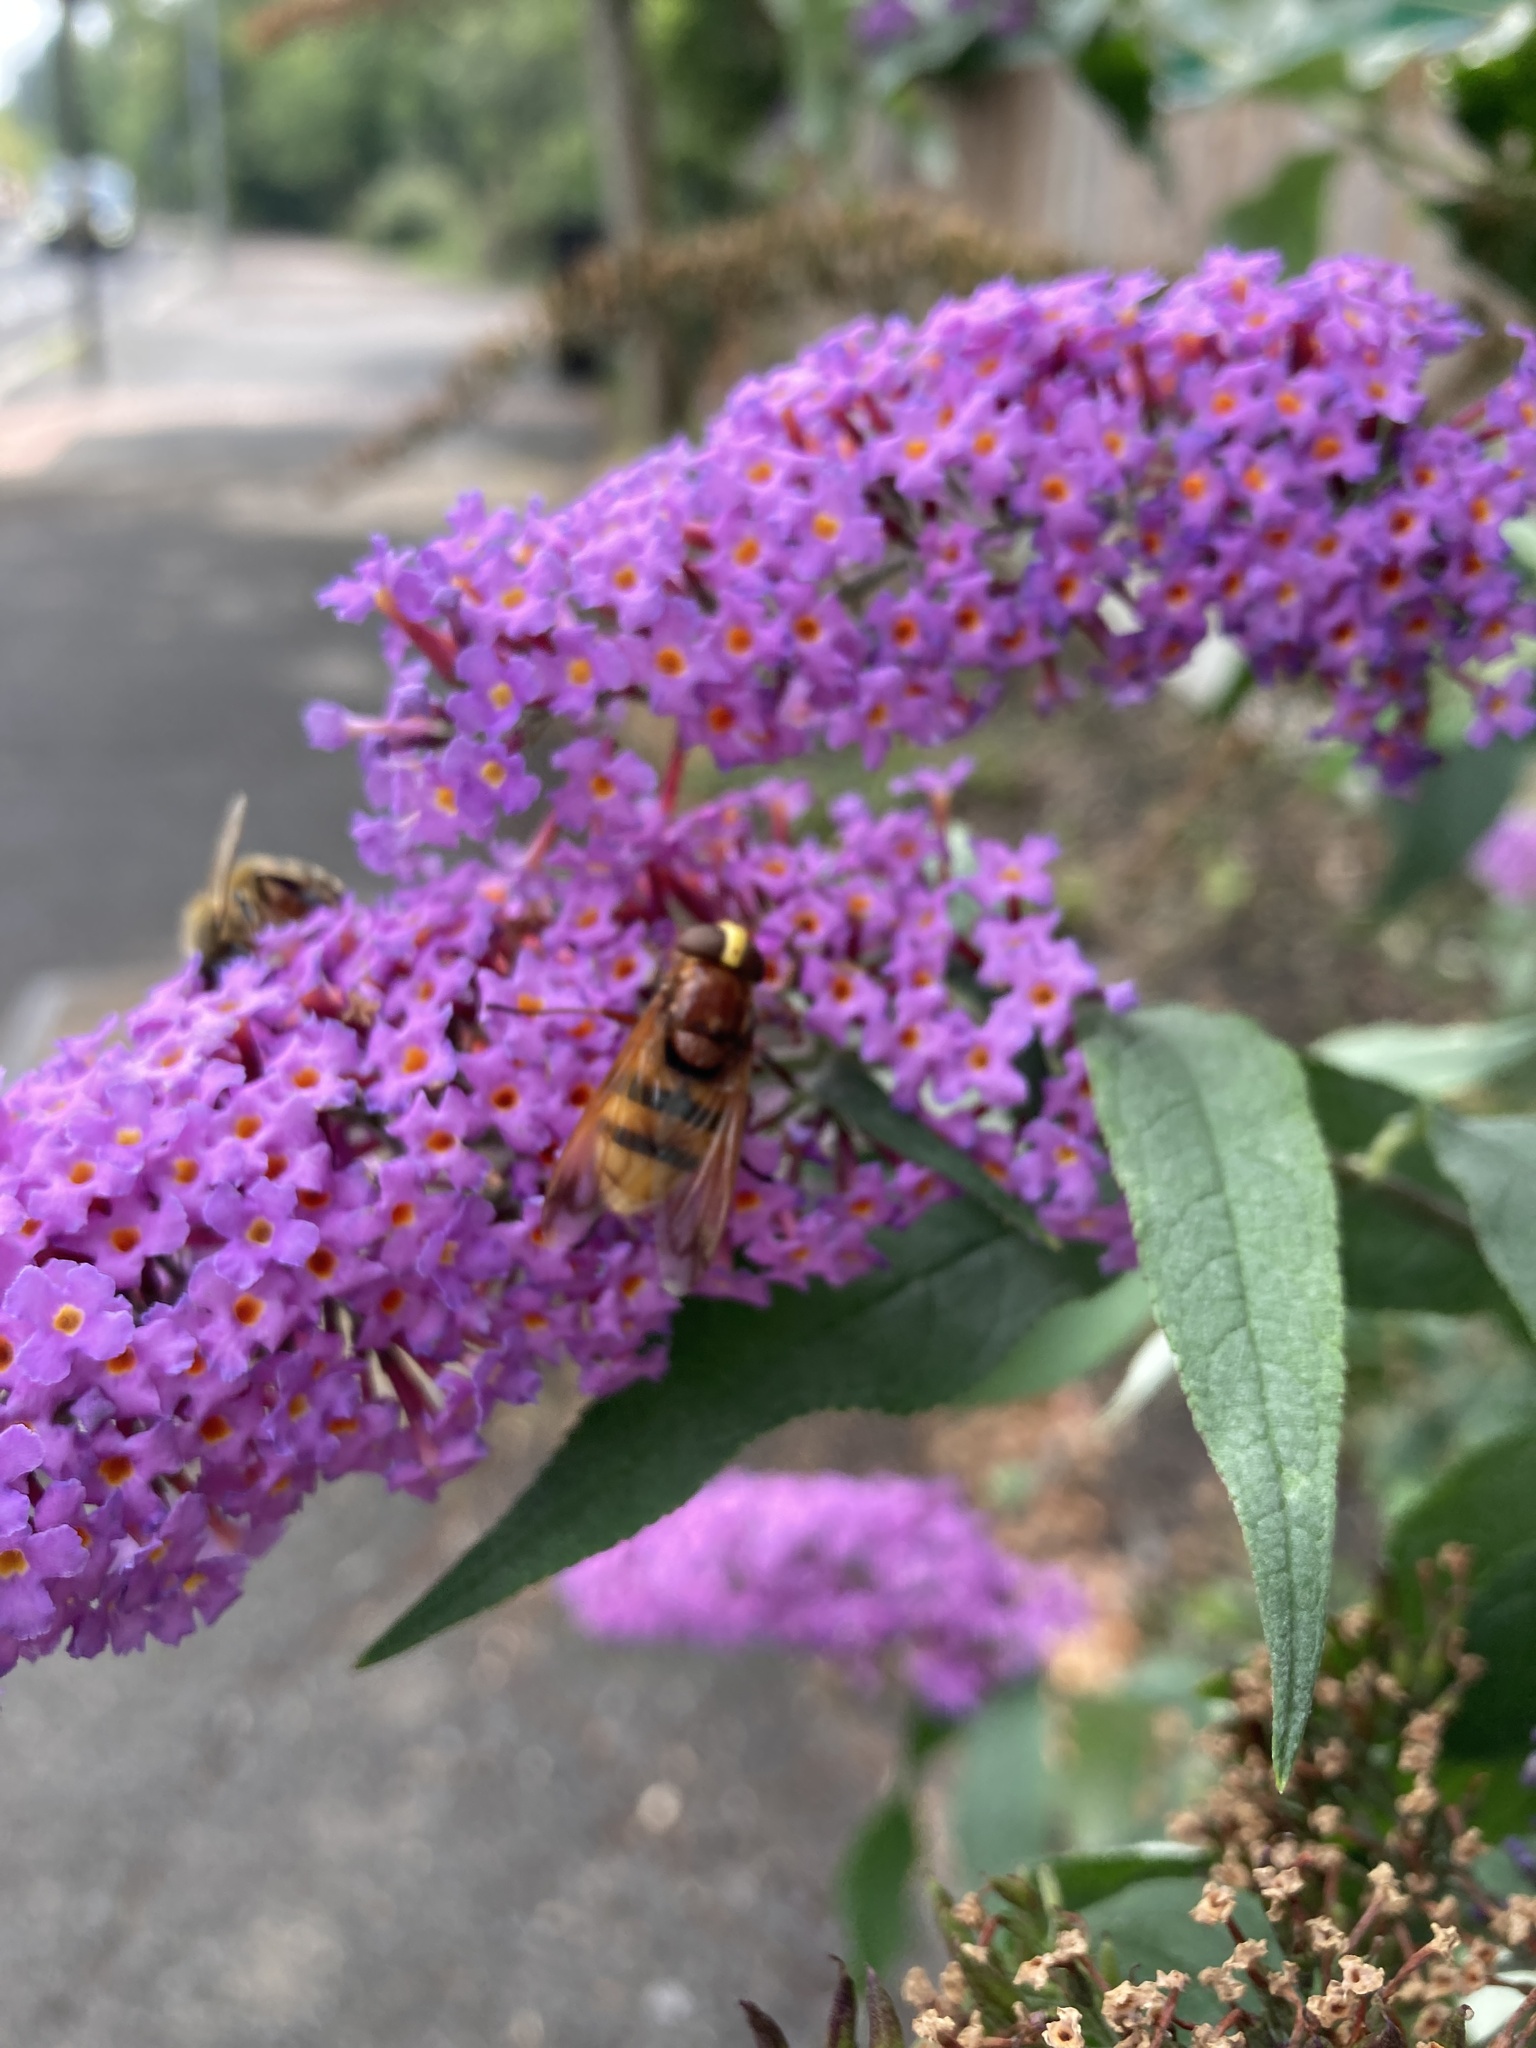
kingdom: Animalia
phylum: Arthropoda
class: Insecta
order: Diptera
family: Syrphidae
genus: Volucella
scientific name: Volucella zonaria
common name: Hornet hoverfly
